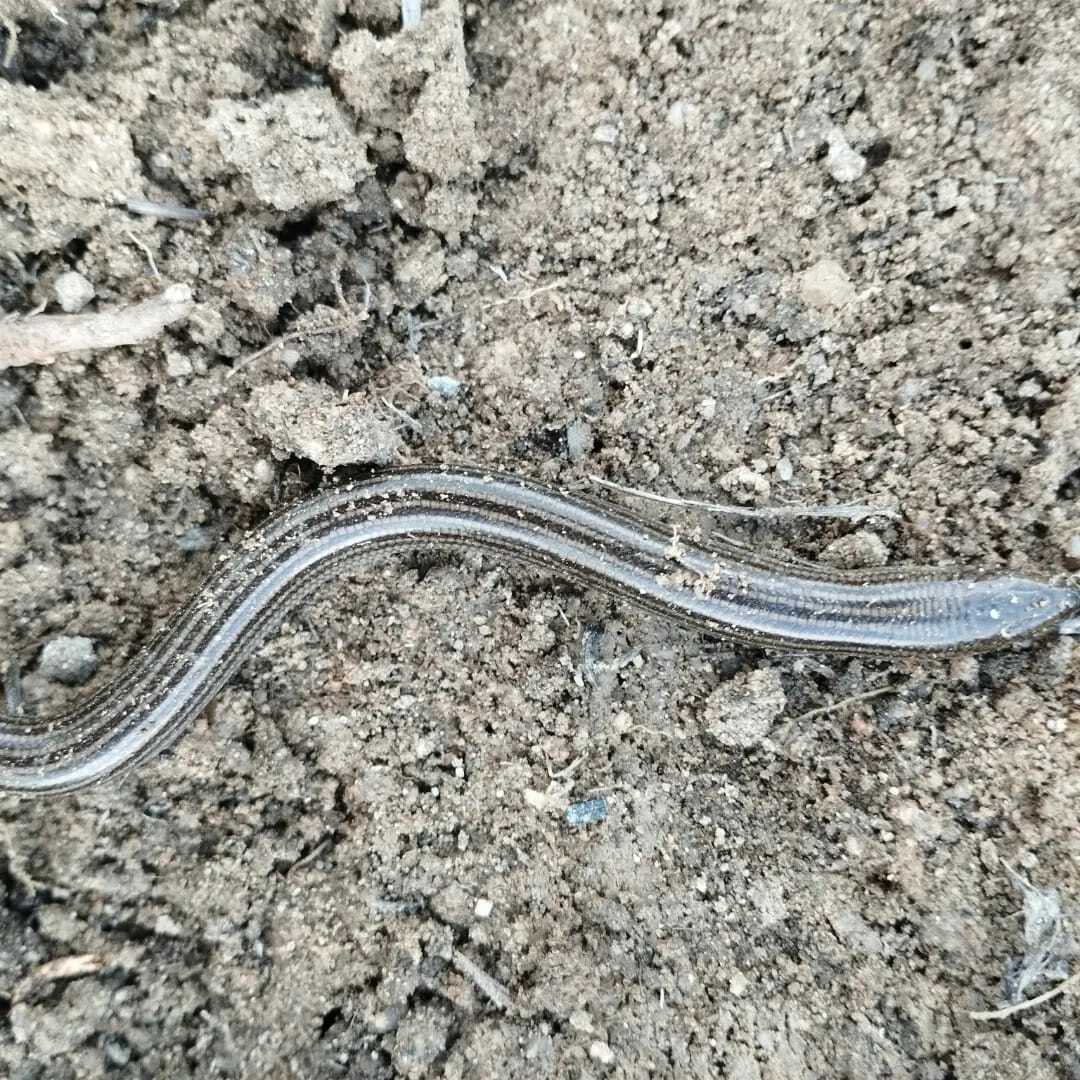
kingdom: Animalia
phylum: Chordata
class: Squamata
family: Scincidae
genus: Chalcides
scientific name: Chalcides striatus
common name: Western (or iberian) three-toed skink
